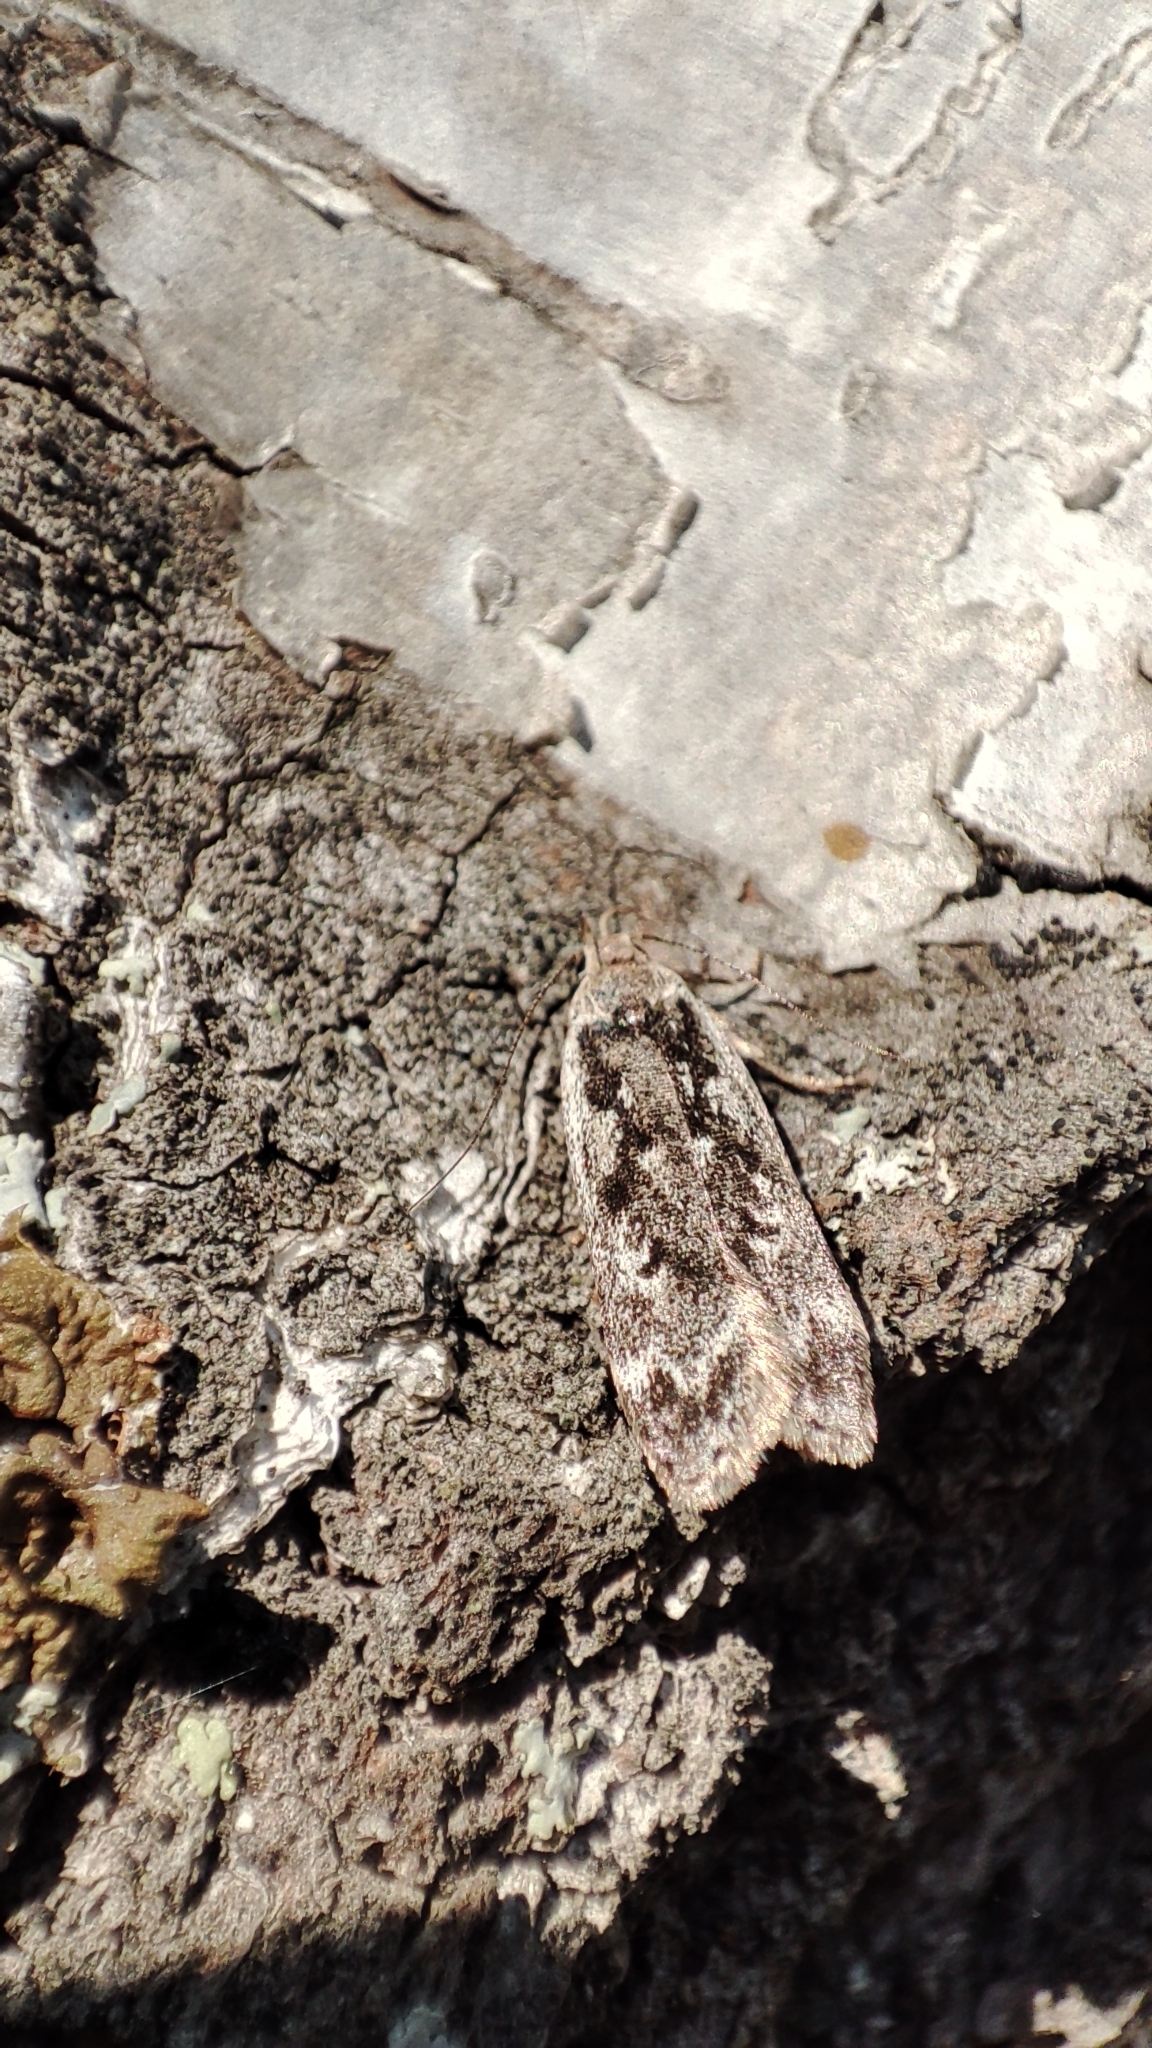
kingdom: Animalia
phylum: Arthropoda
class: Insecta
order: Lepidoptera
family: Gelechiidae
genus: Anacampsis
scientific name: Anacampsis blattariella
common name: Birch sober
